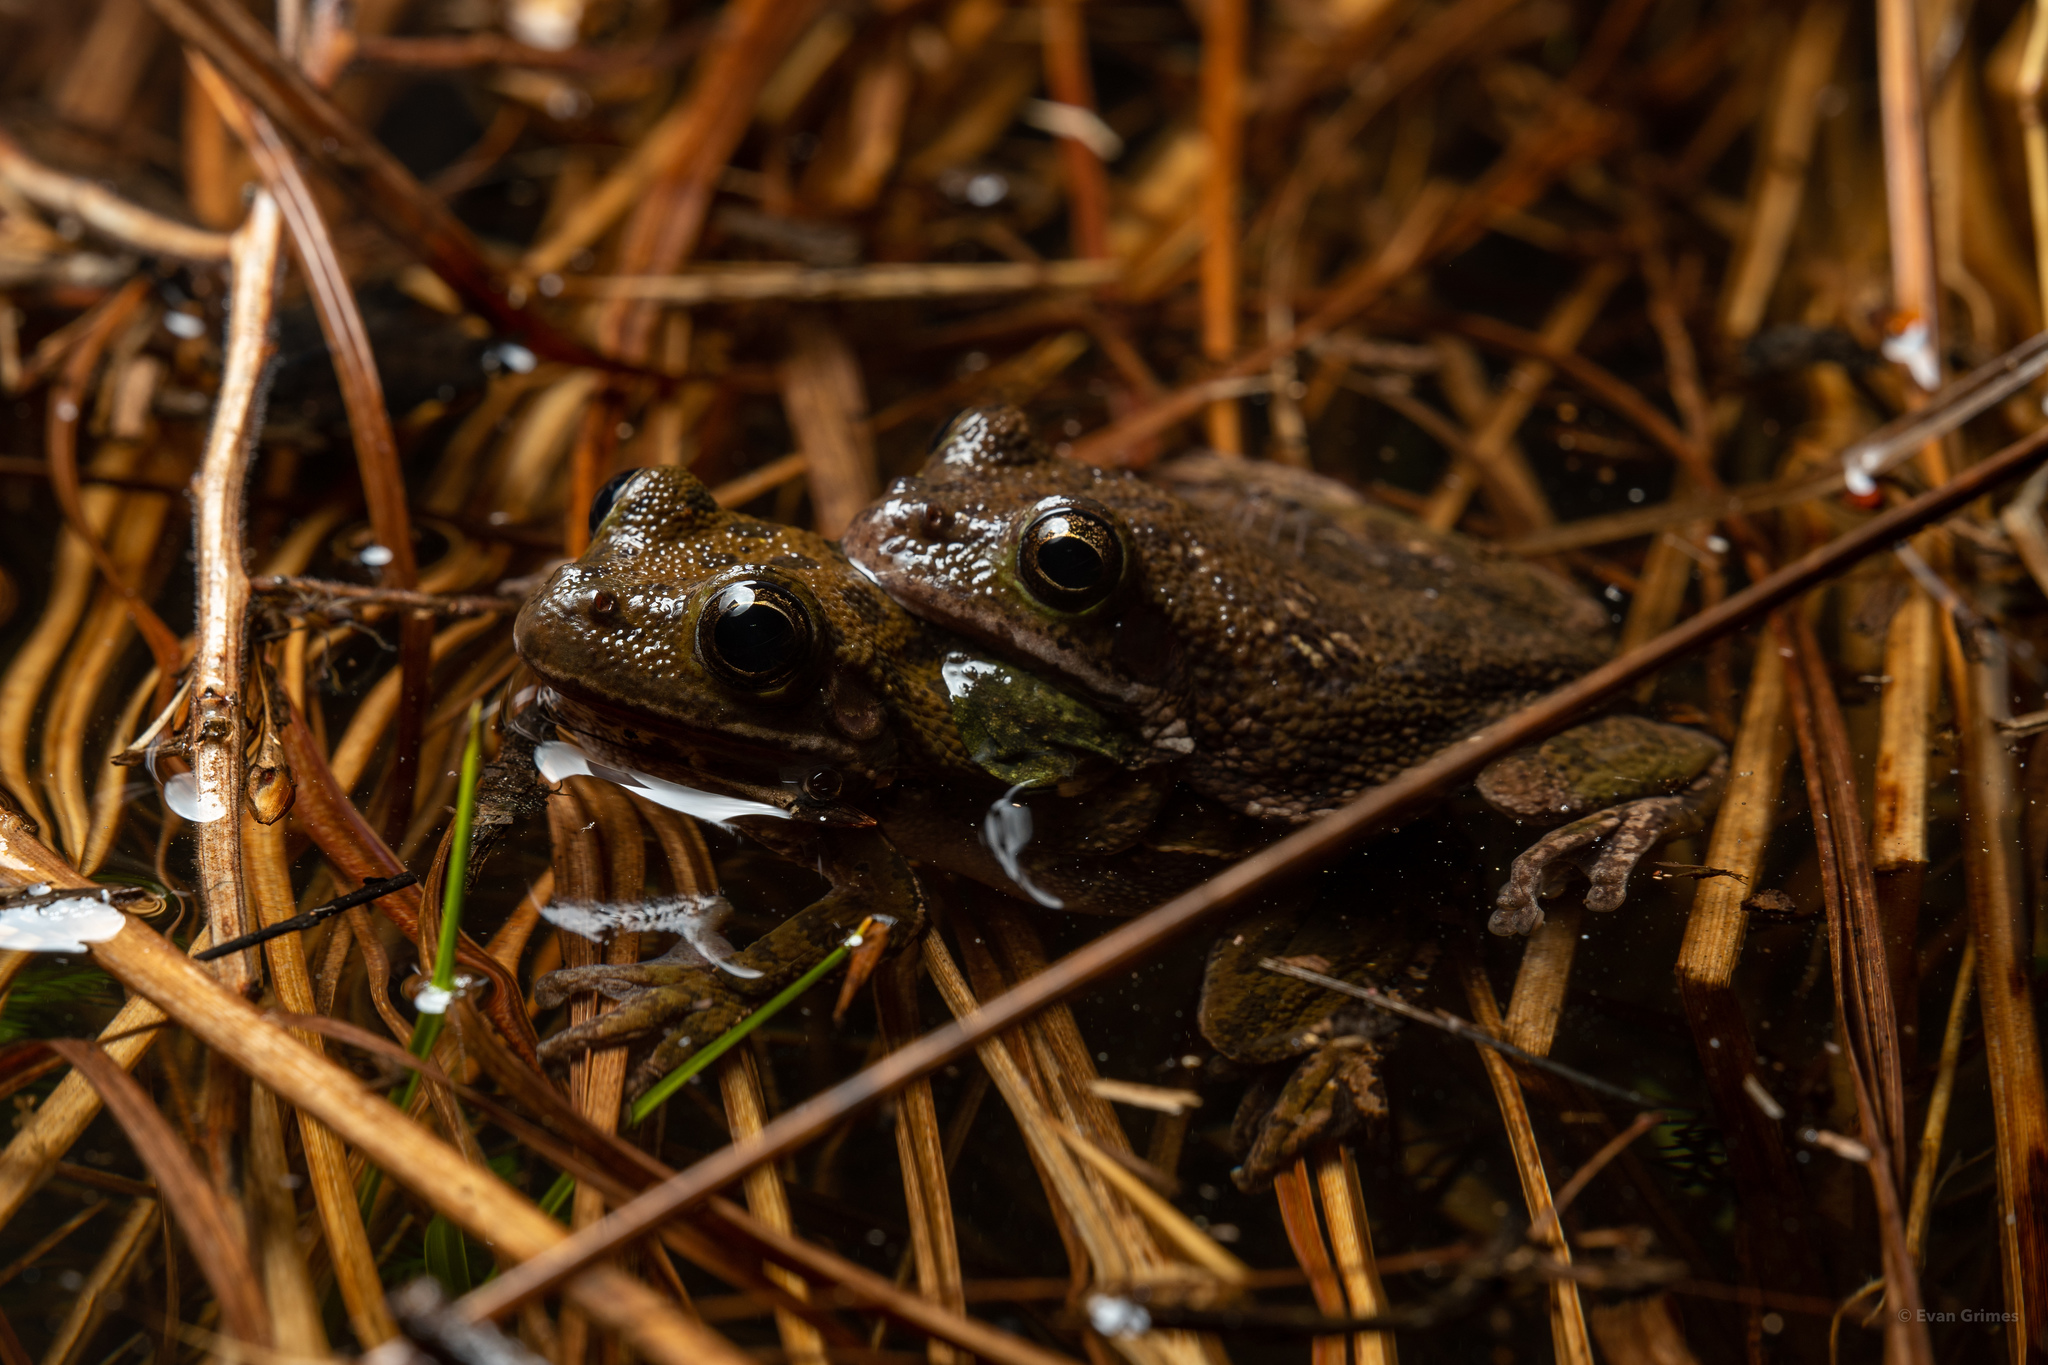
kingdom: Animalia
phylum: Chordata
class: Amphibia
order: Anura
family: Hylidae
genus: Dryophytes
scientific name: Dryophytes gratiosus
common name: Barking treefrog
